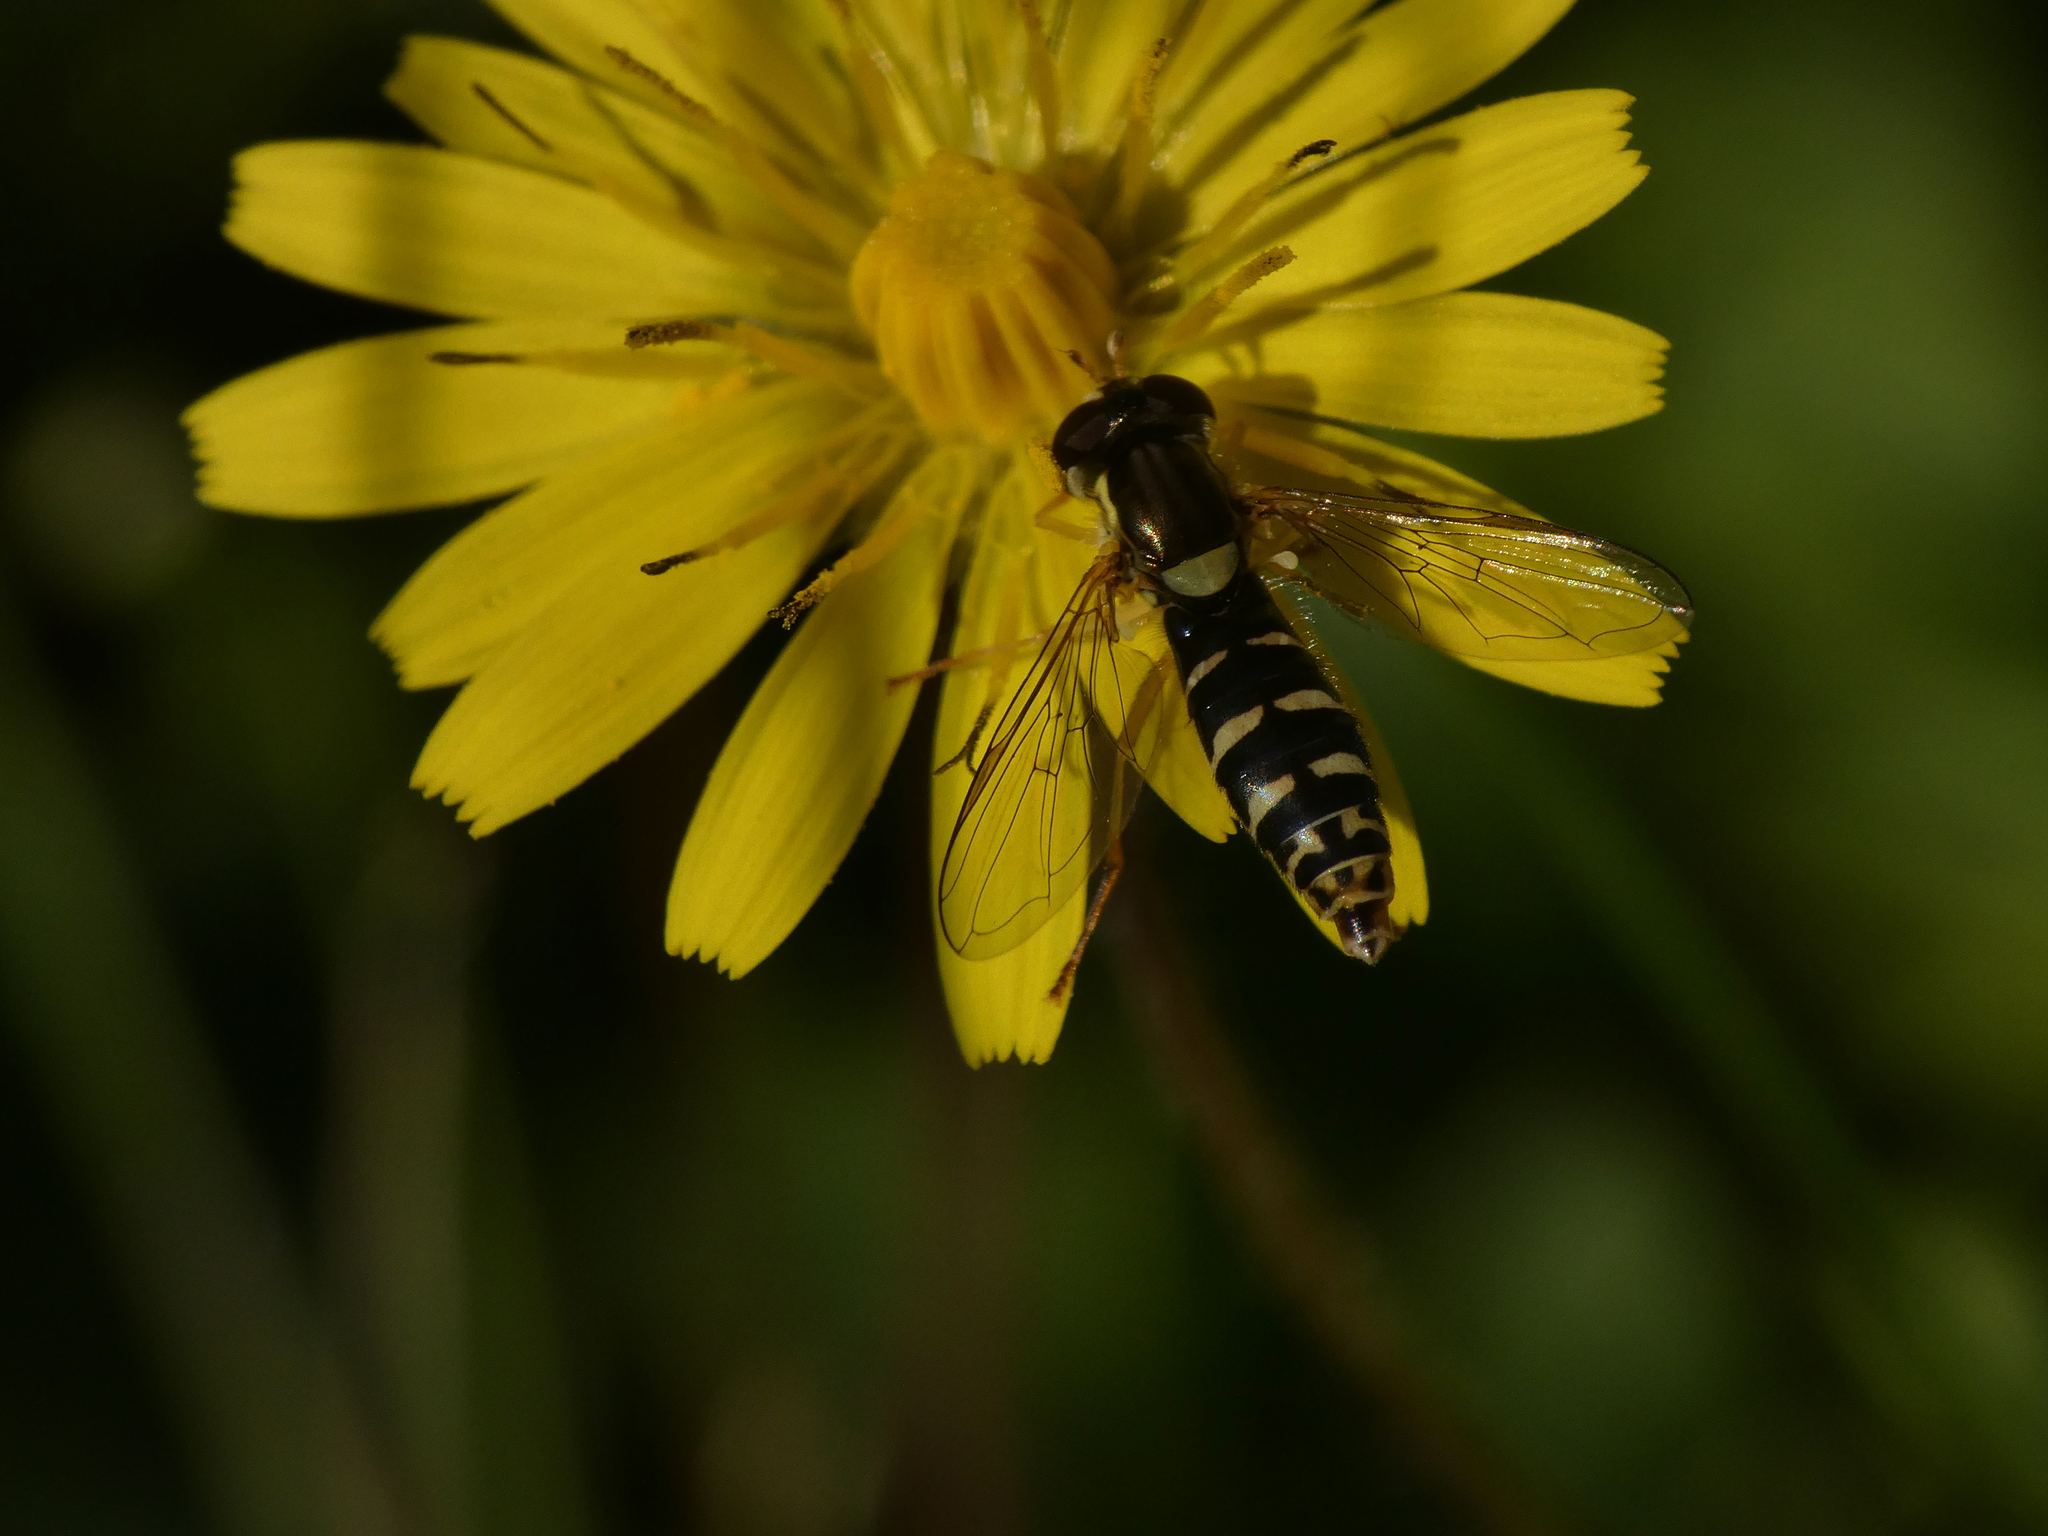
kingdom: Animalia
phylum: Arthropoda
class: Insecta
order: Diptera
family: Syrphidae
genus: Sphaerophoria
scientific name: Sphaerophoria
